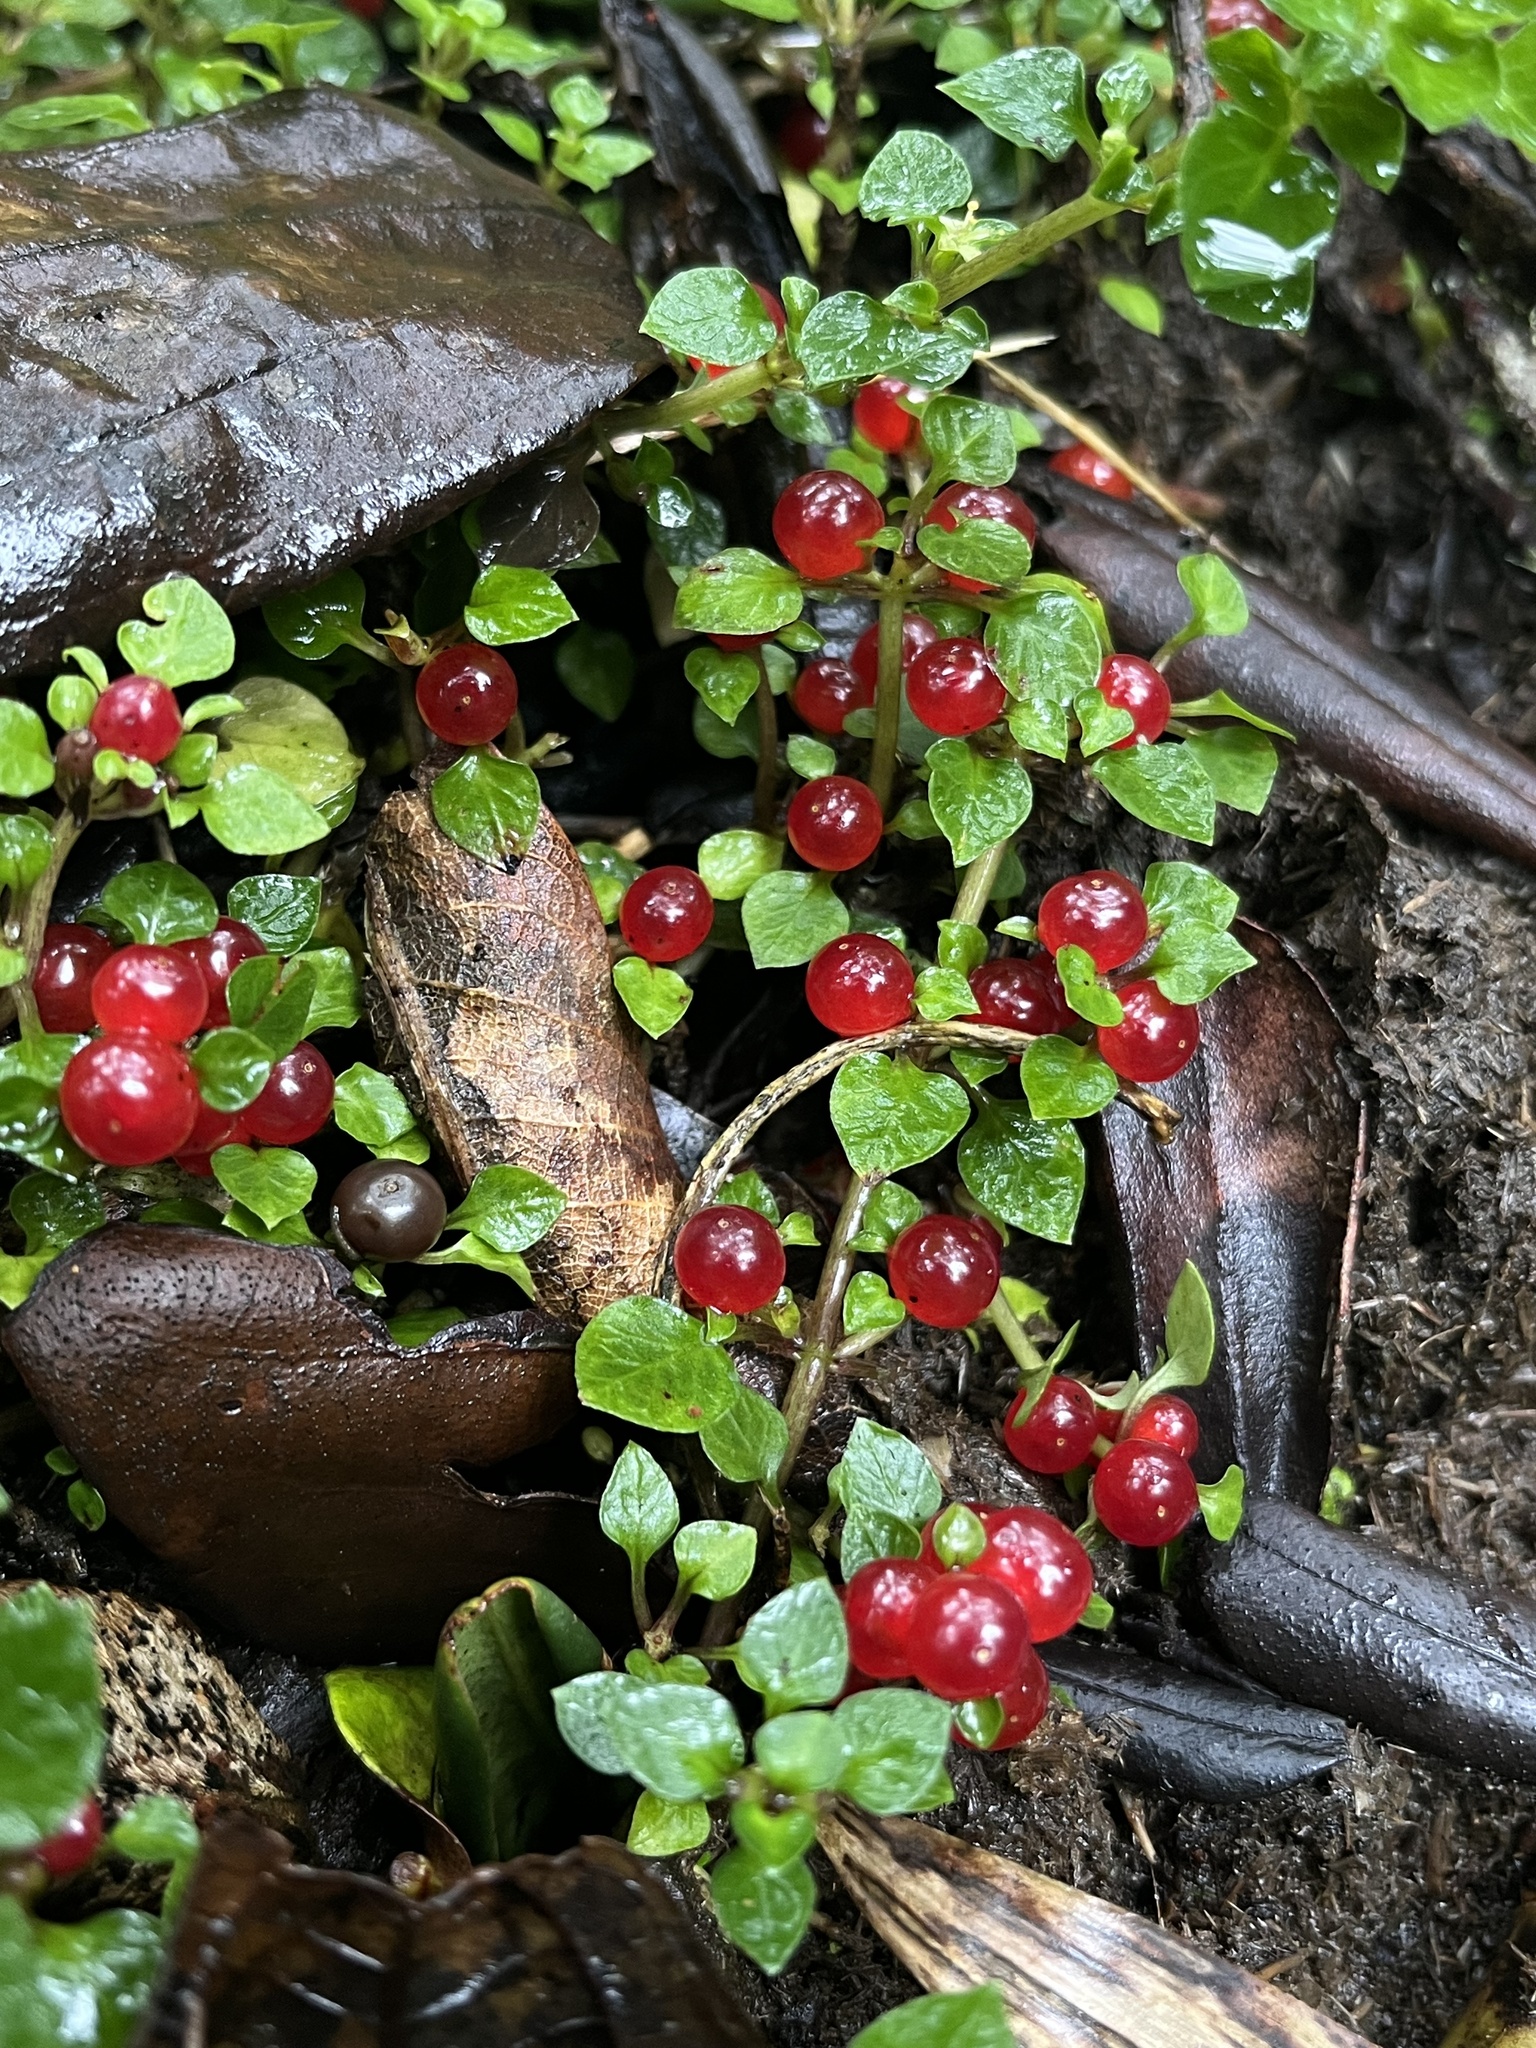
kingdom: Plantae
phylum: Tracheophyta
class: Magnoliopsida
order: Gentianales
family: Rubiaceae
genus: Nertera
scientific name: Nertera granadensis
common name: Beadplant
